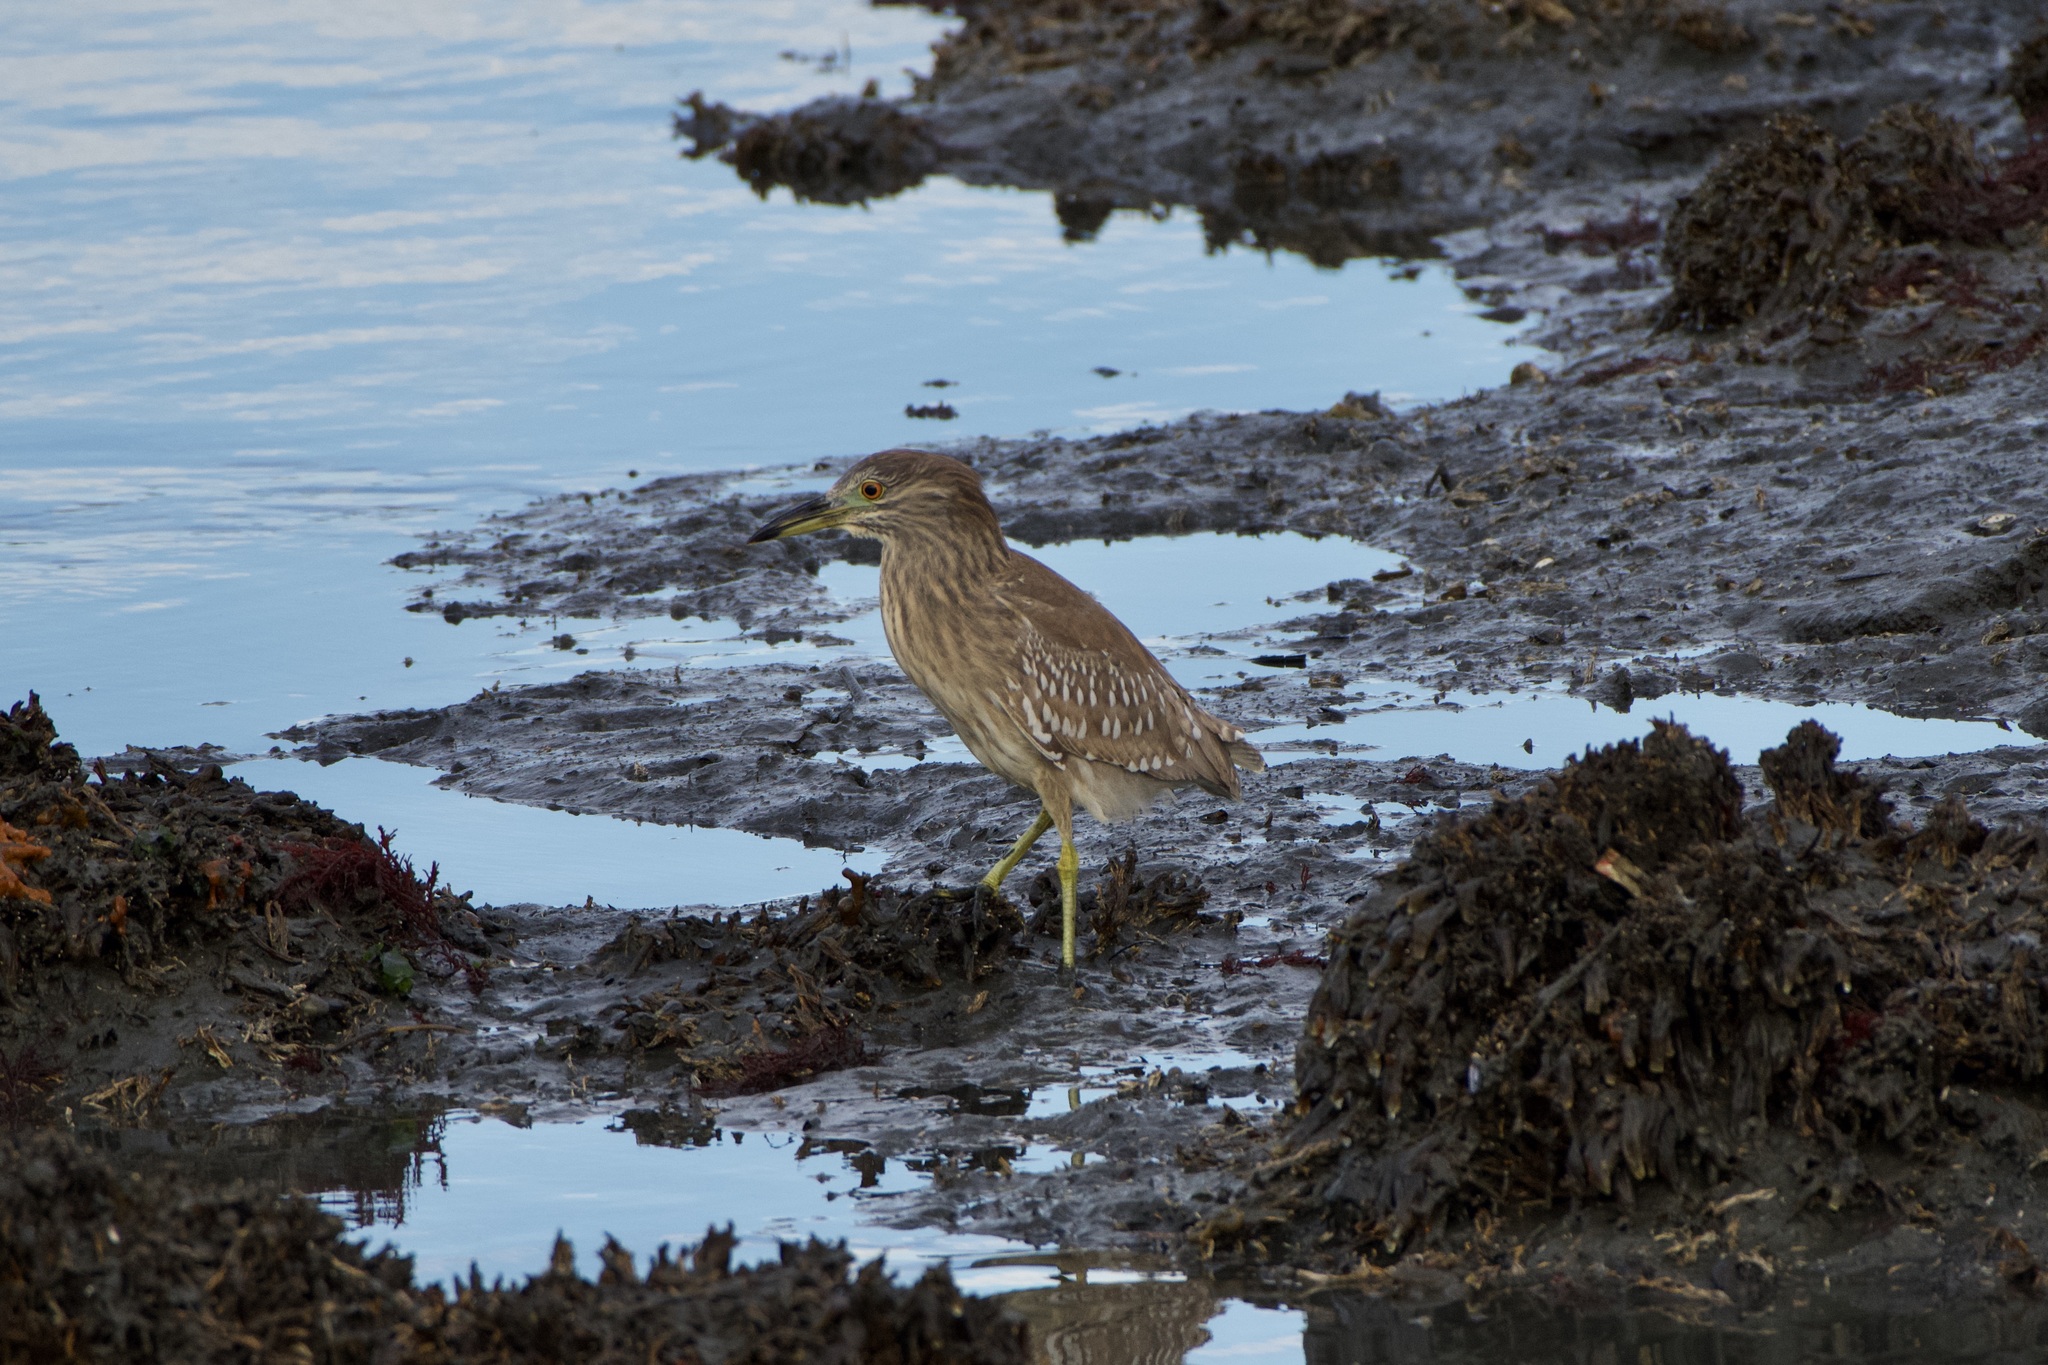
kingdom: Animalia
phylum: Chordata
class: Aves
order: Pelecaniformes
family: Ardeidae
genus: Nycticorax
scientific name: Nycticorax nycticorax
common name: Black-crowned night heron
